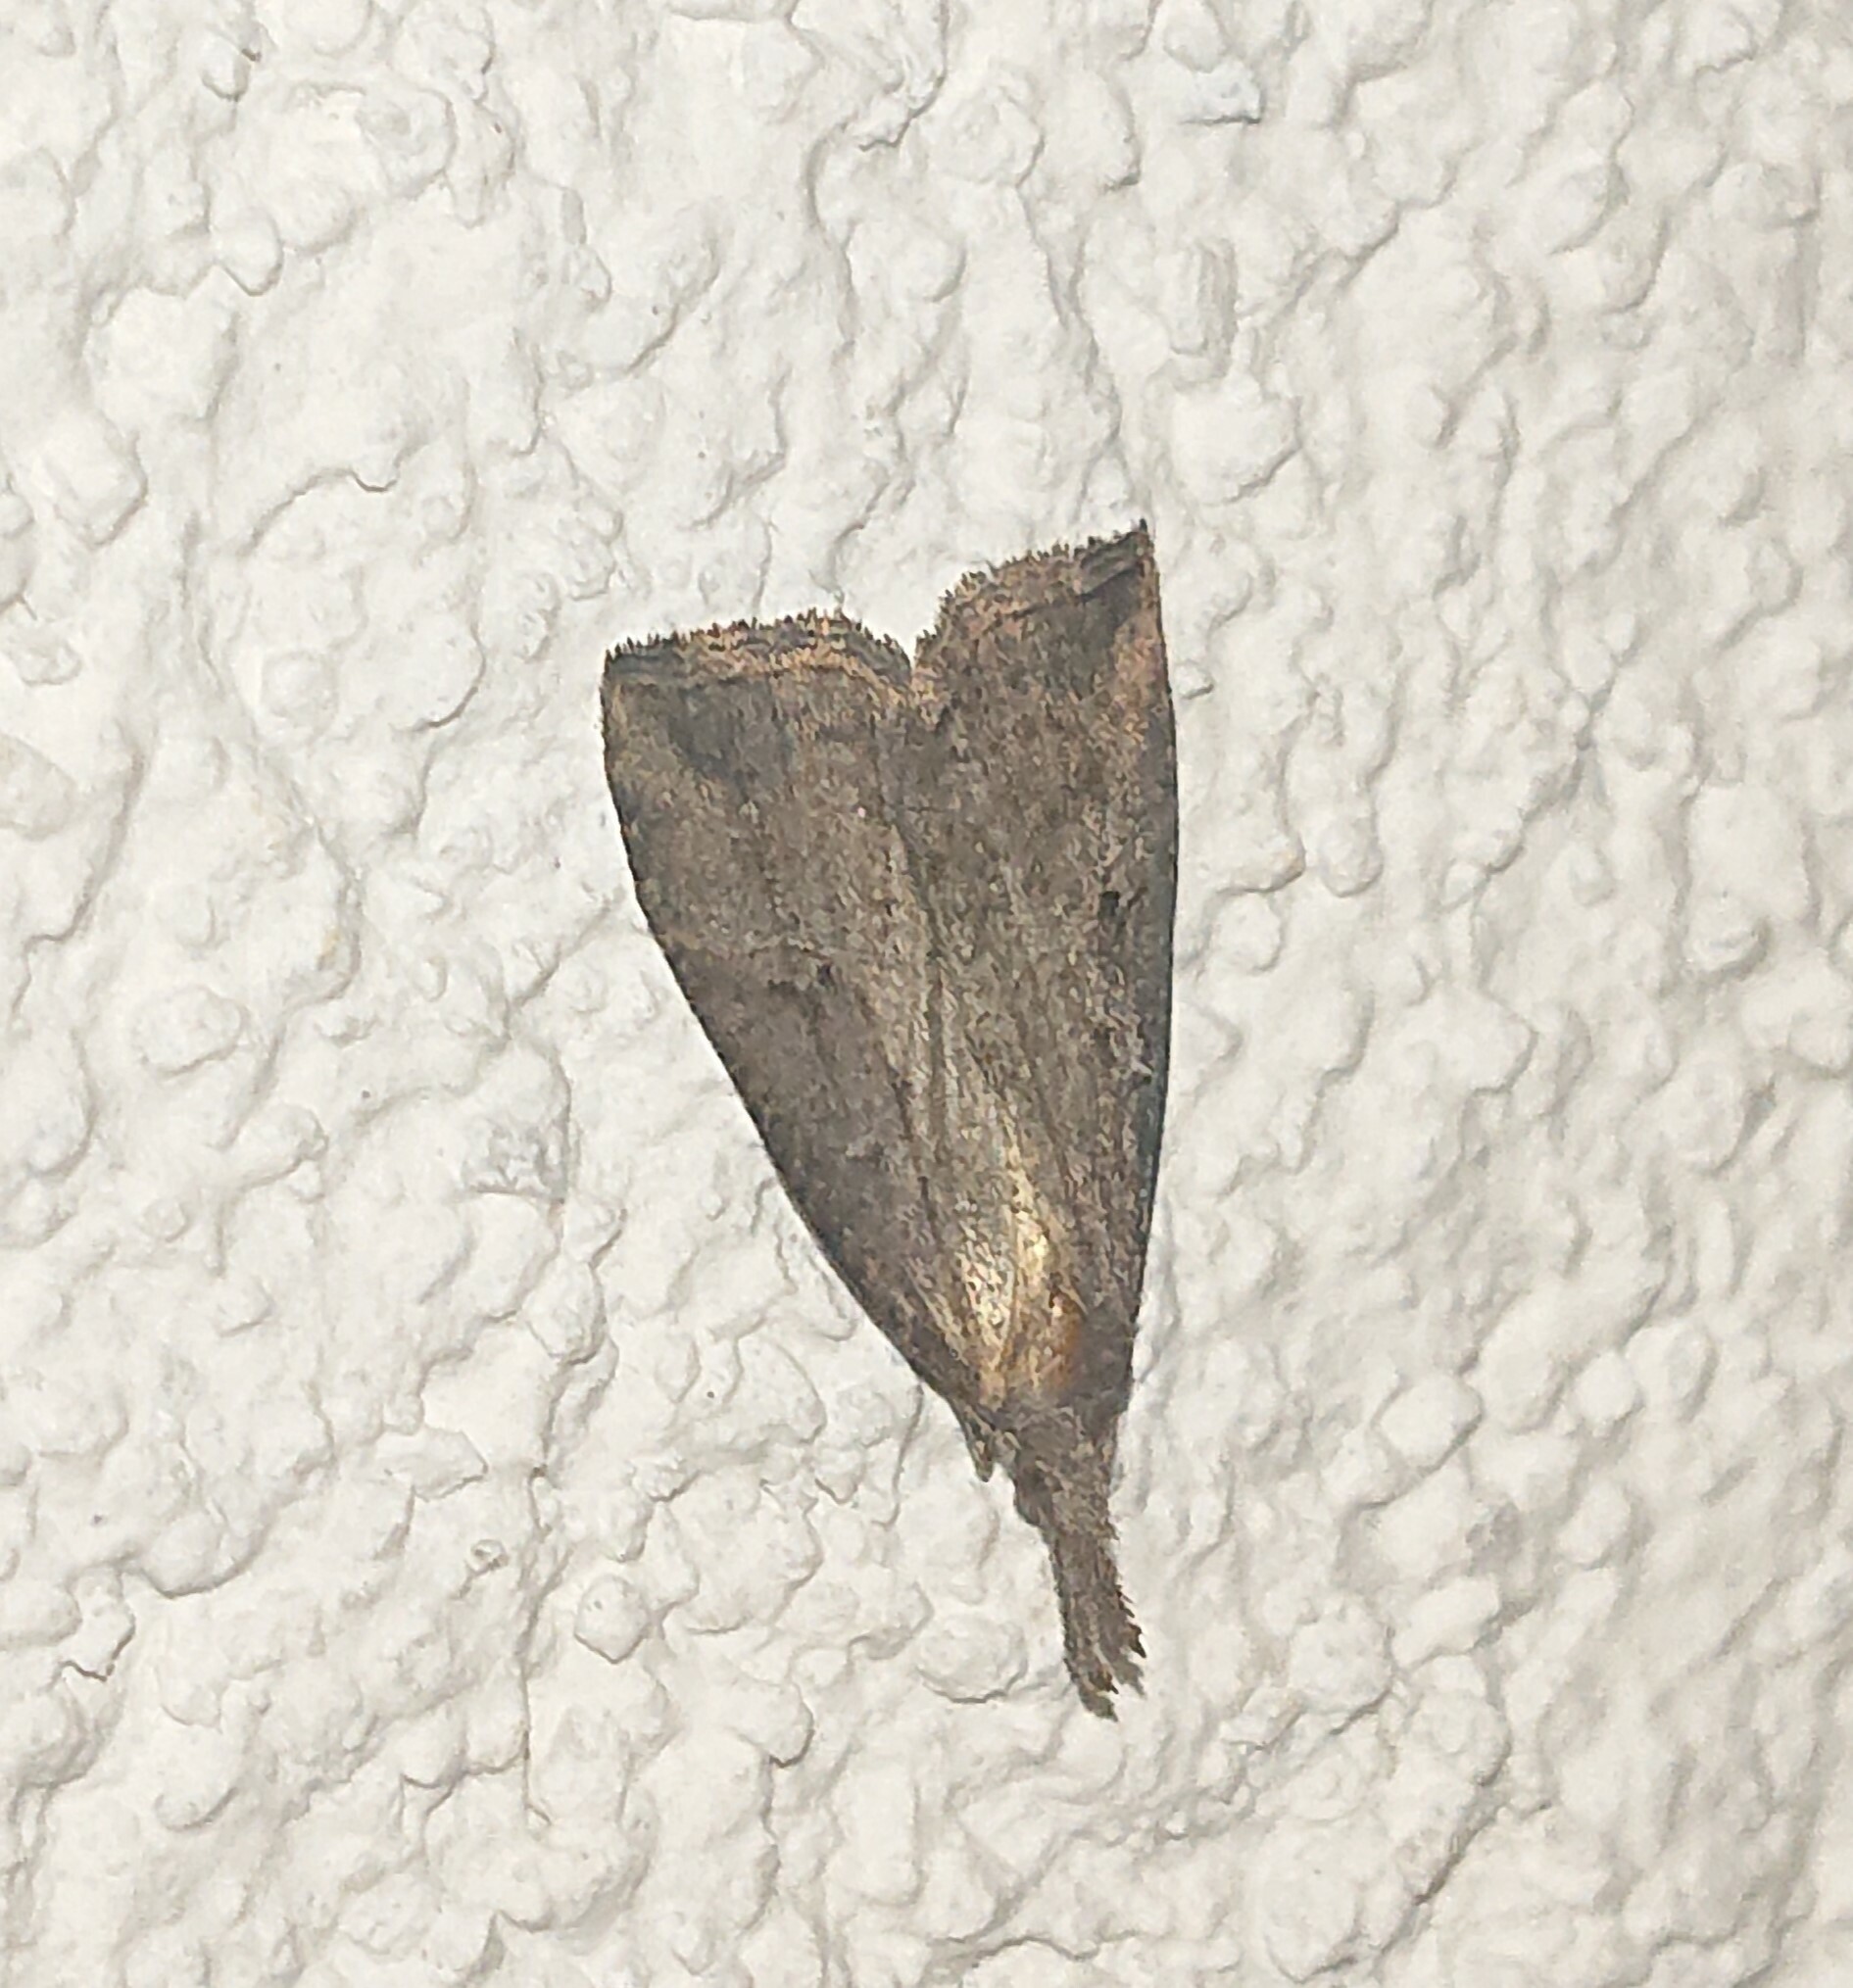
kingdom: Animalia
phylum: Arthropoda
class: Insecta
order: Lepidoptera
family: Erebidae
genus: Hypena
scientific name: Hypena rostralis
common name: Buttoned snout
